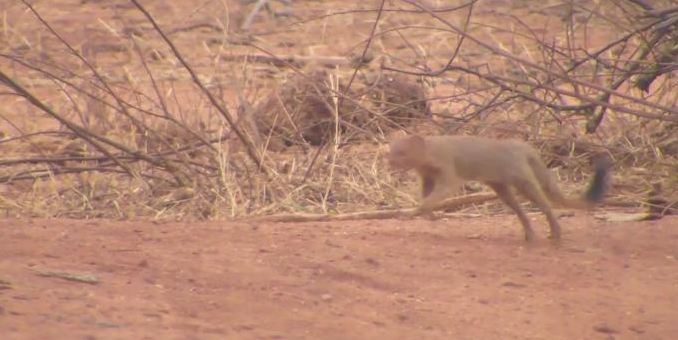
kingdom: Animalia
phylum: Chordata
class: Mammalia
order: Carnivora
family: Herpestidae
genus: Galerella
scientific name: Galerella sanguinea
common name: Slender mongoose
